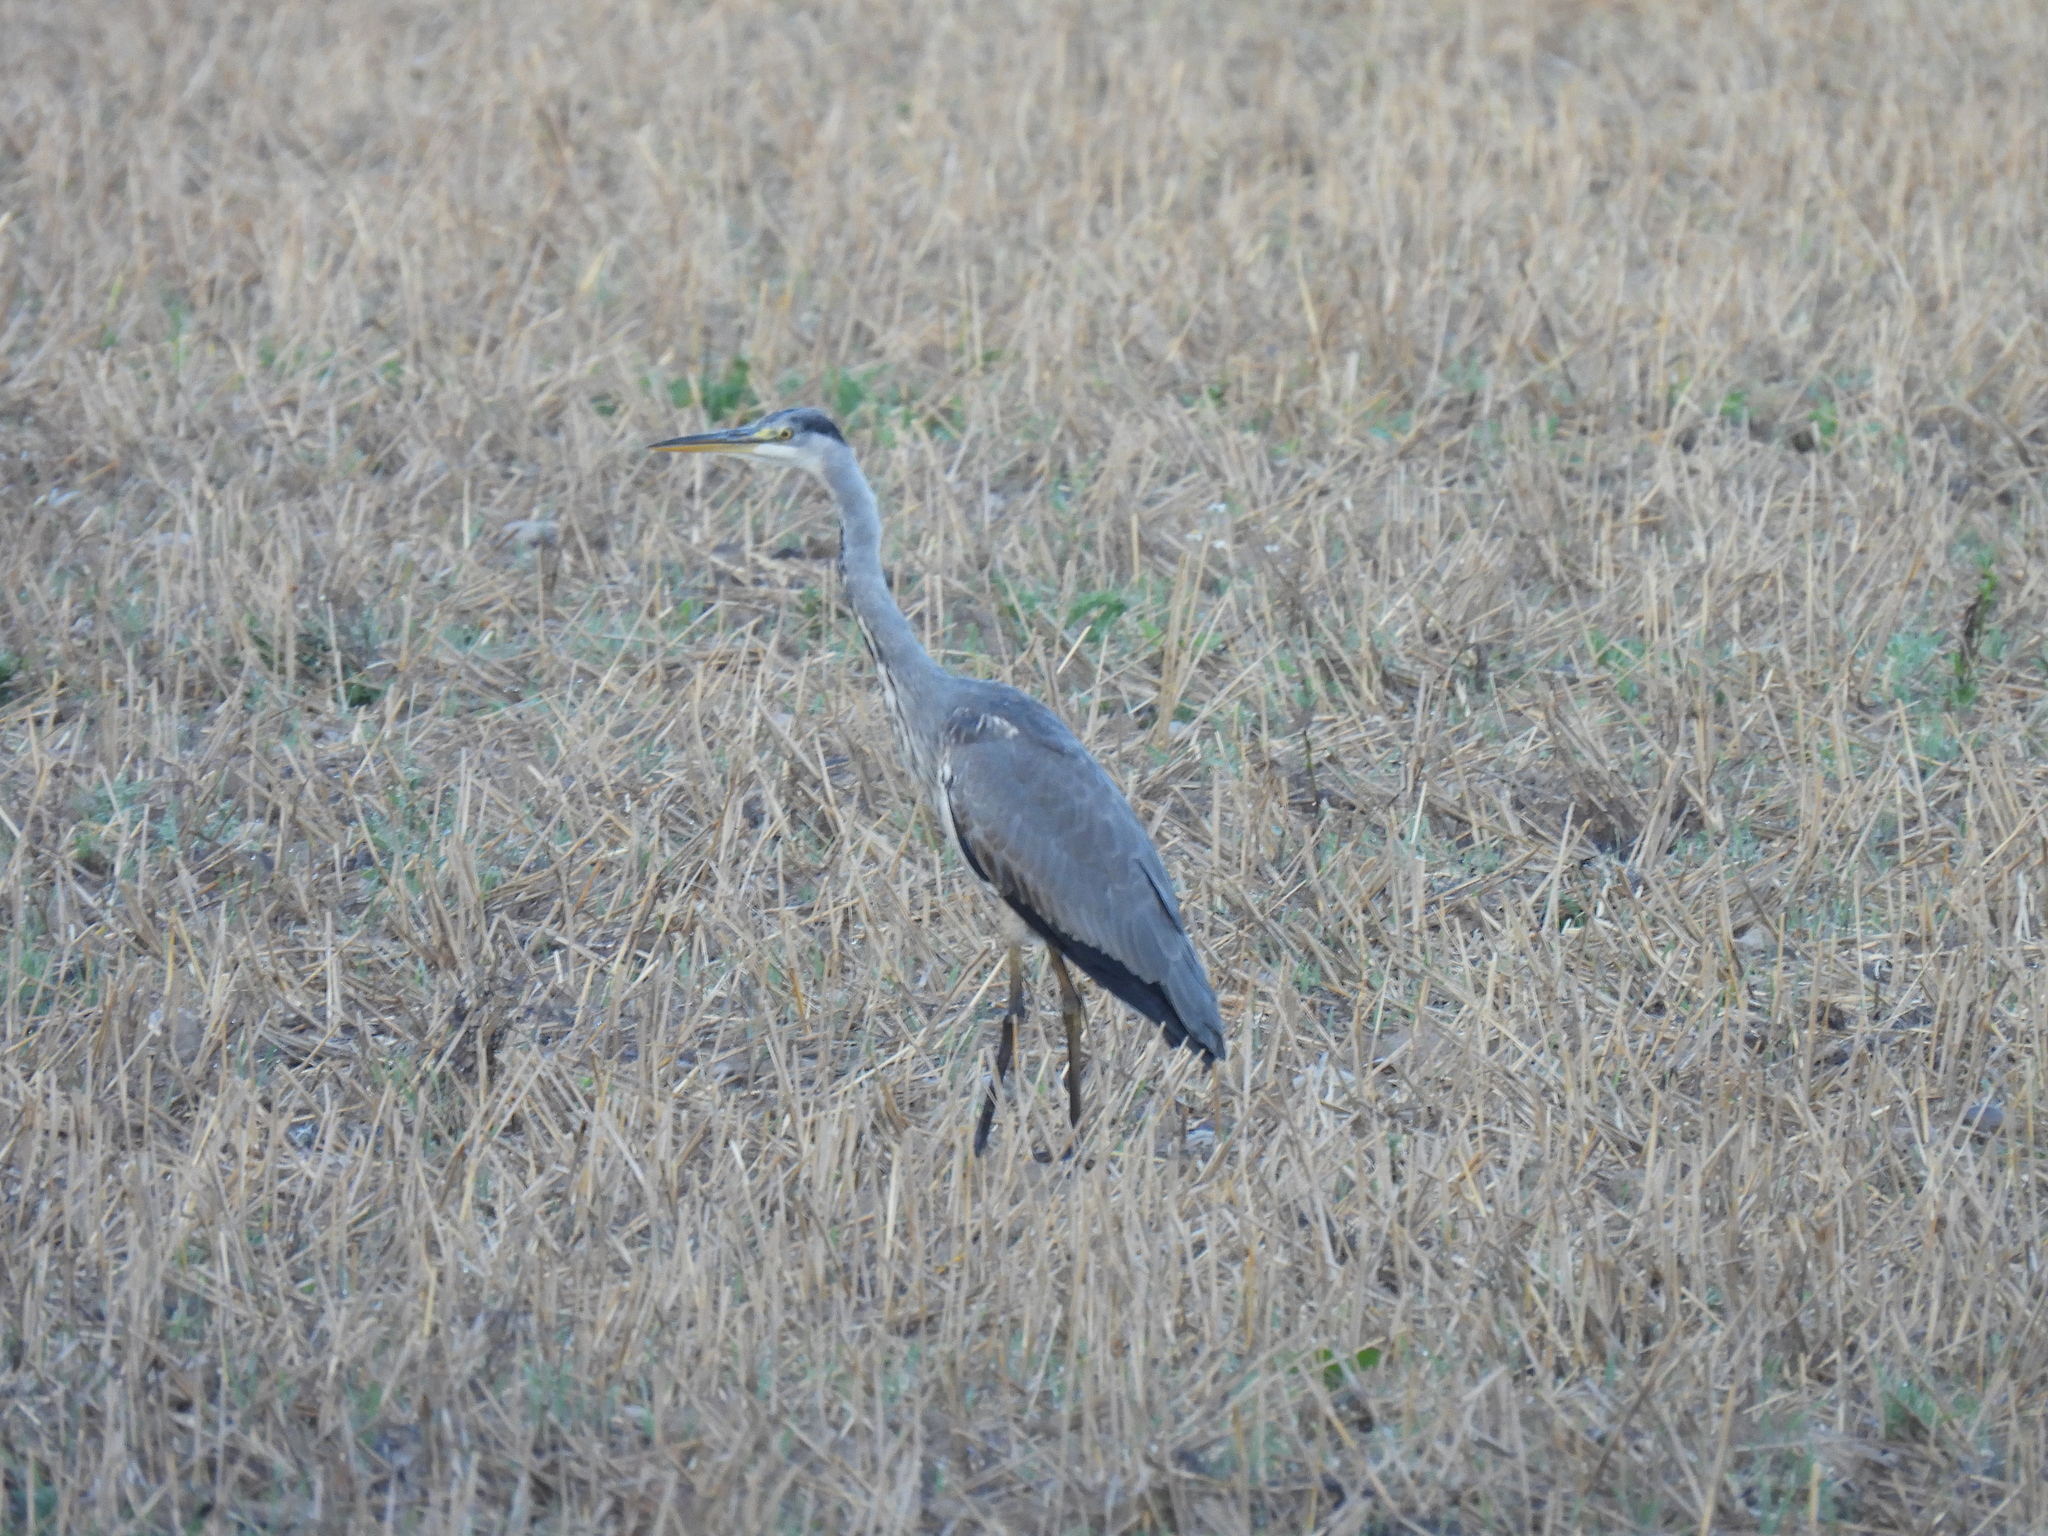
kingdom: Animalia
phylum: Chordata
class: Aves
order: Pelecaniformes
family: Ardeidae
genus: Ardea
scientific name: Ardea cinerea
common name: Grey heron
